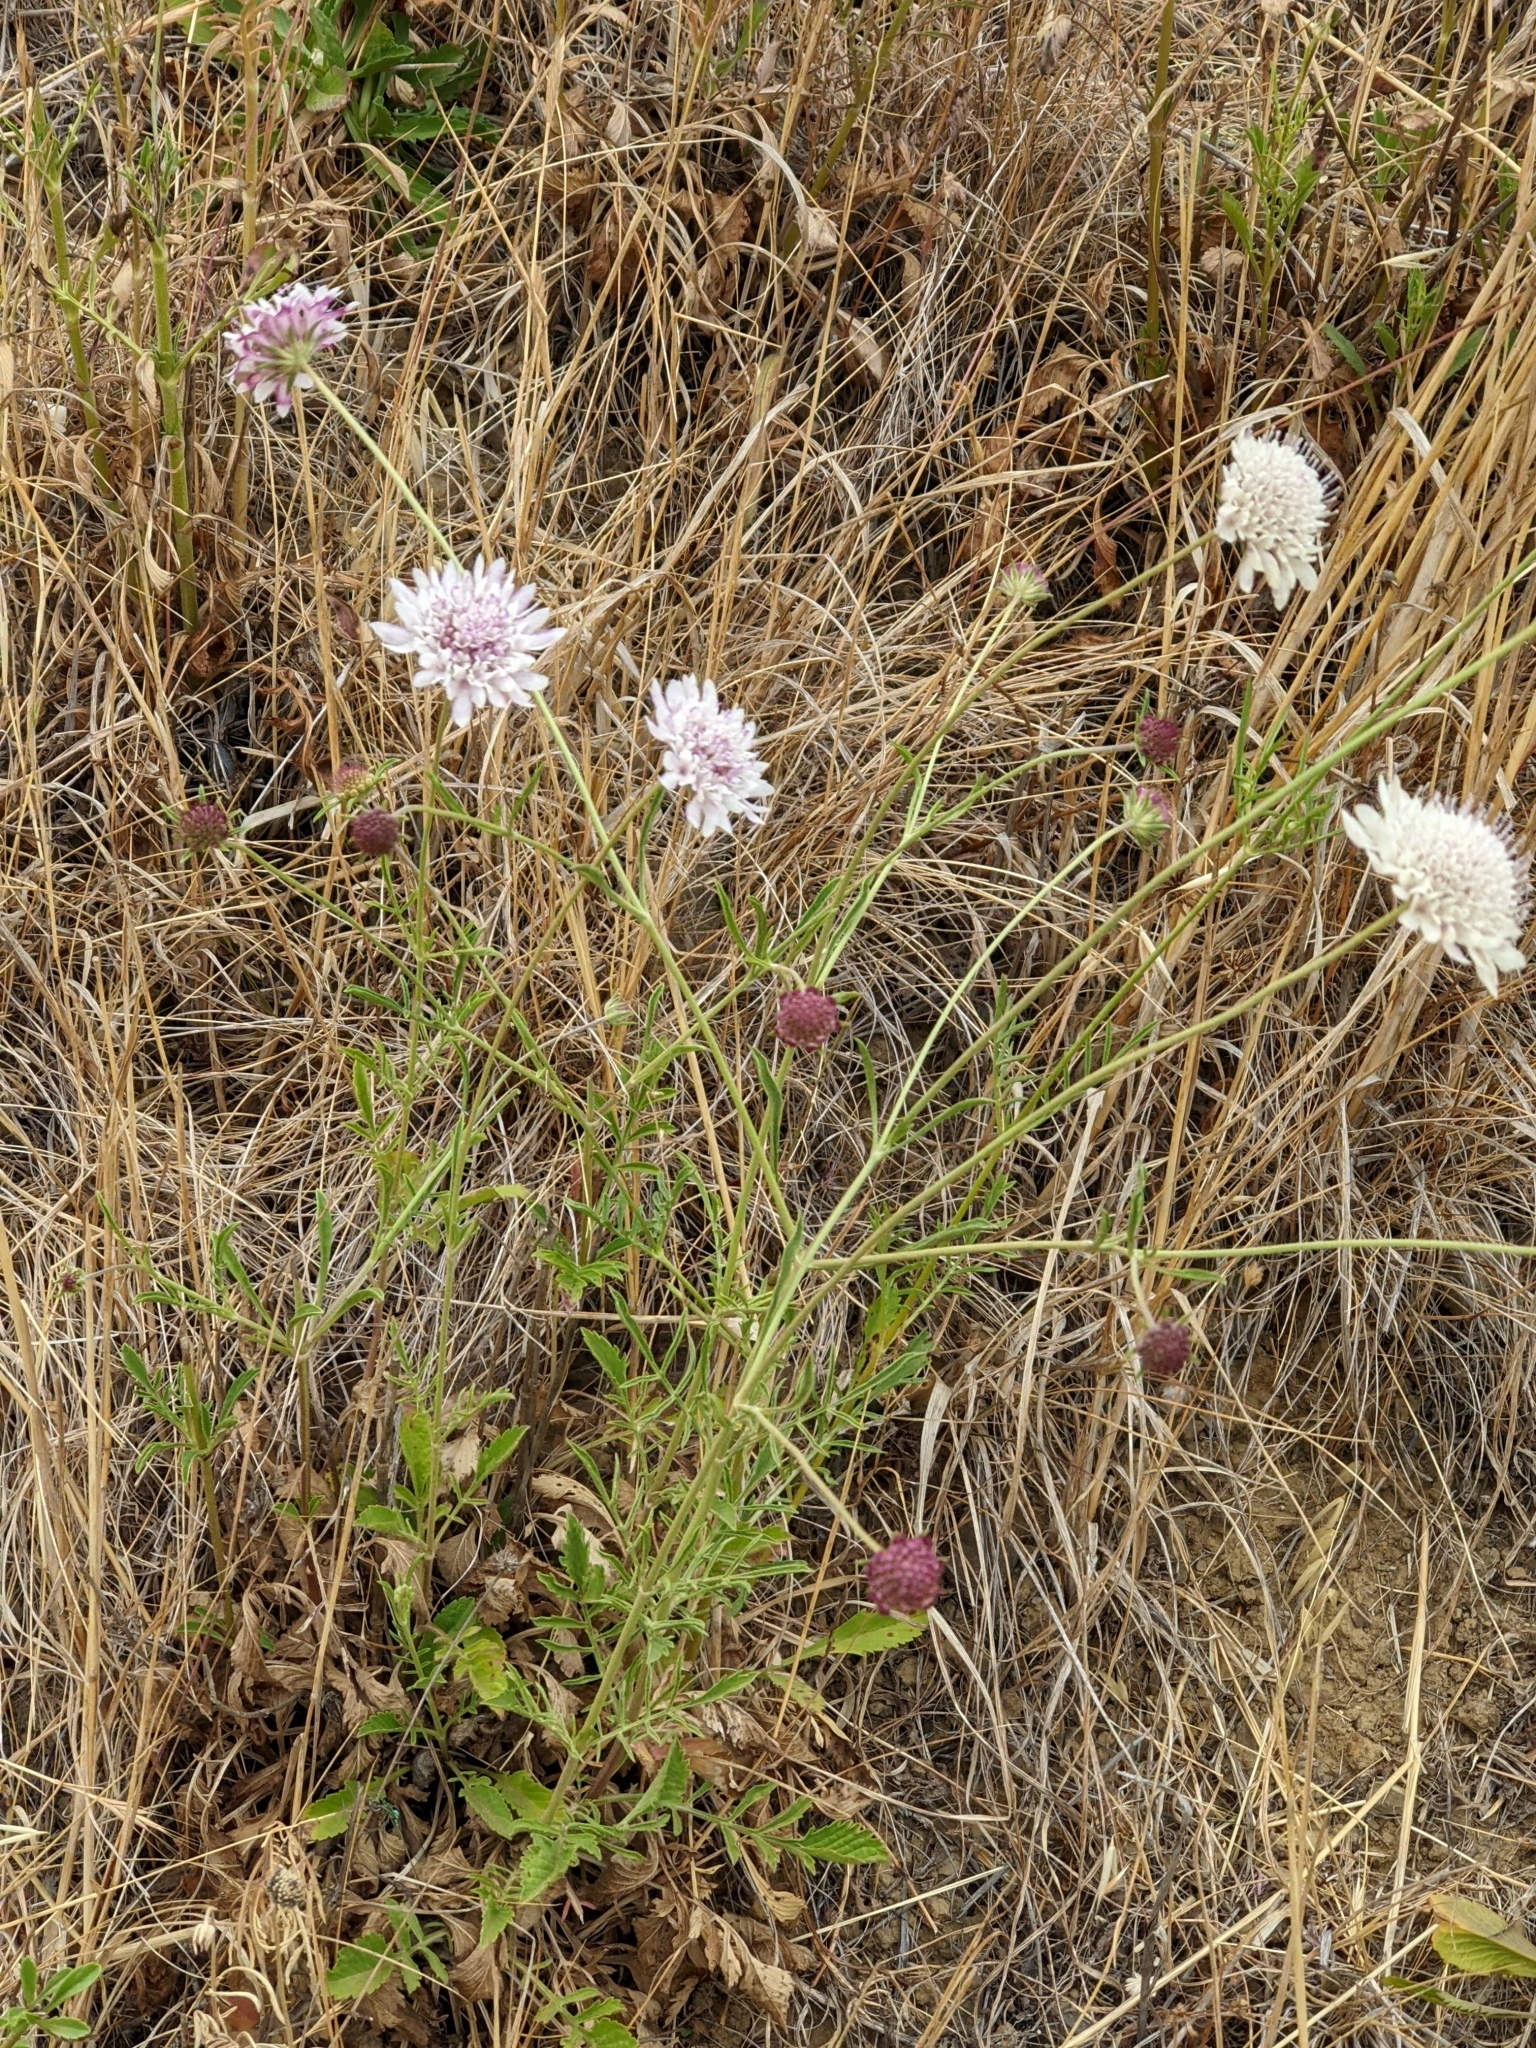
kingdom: Plantae
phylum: Tracheophyta
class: Magnoliopsida
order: Dipsacales
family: Caprifoliaceae
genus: Sixalix
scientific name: Sixalix atropurpurea
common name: Sweet scabious
